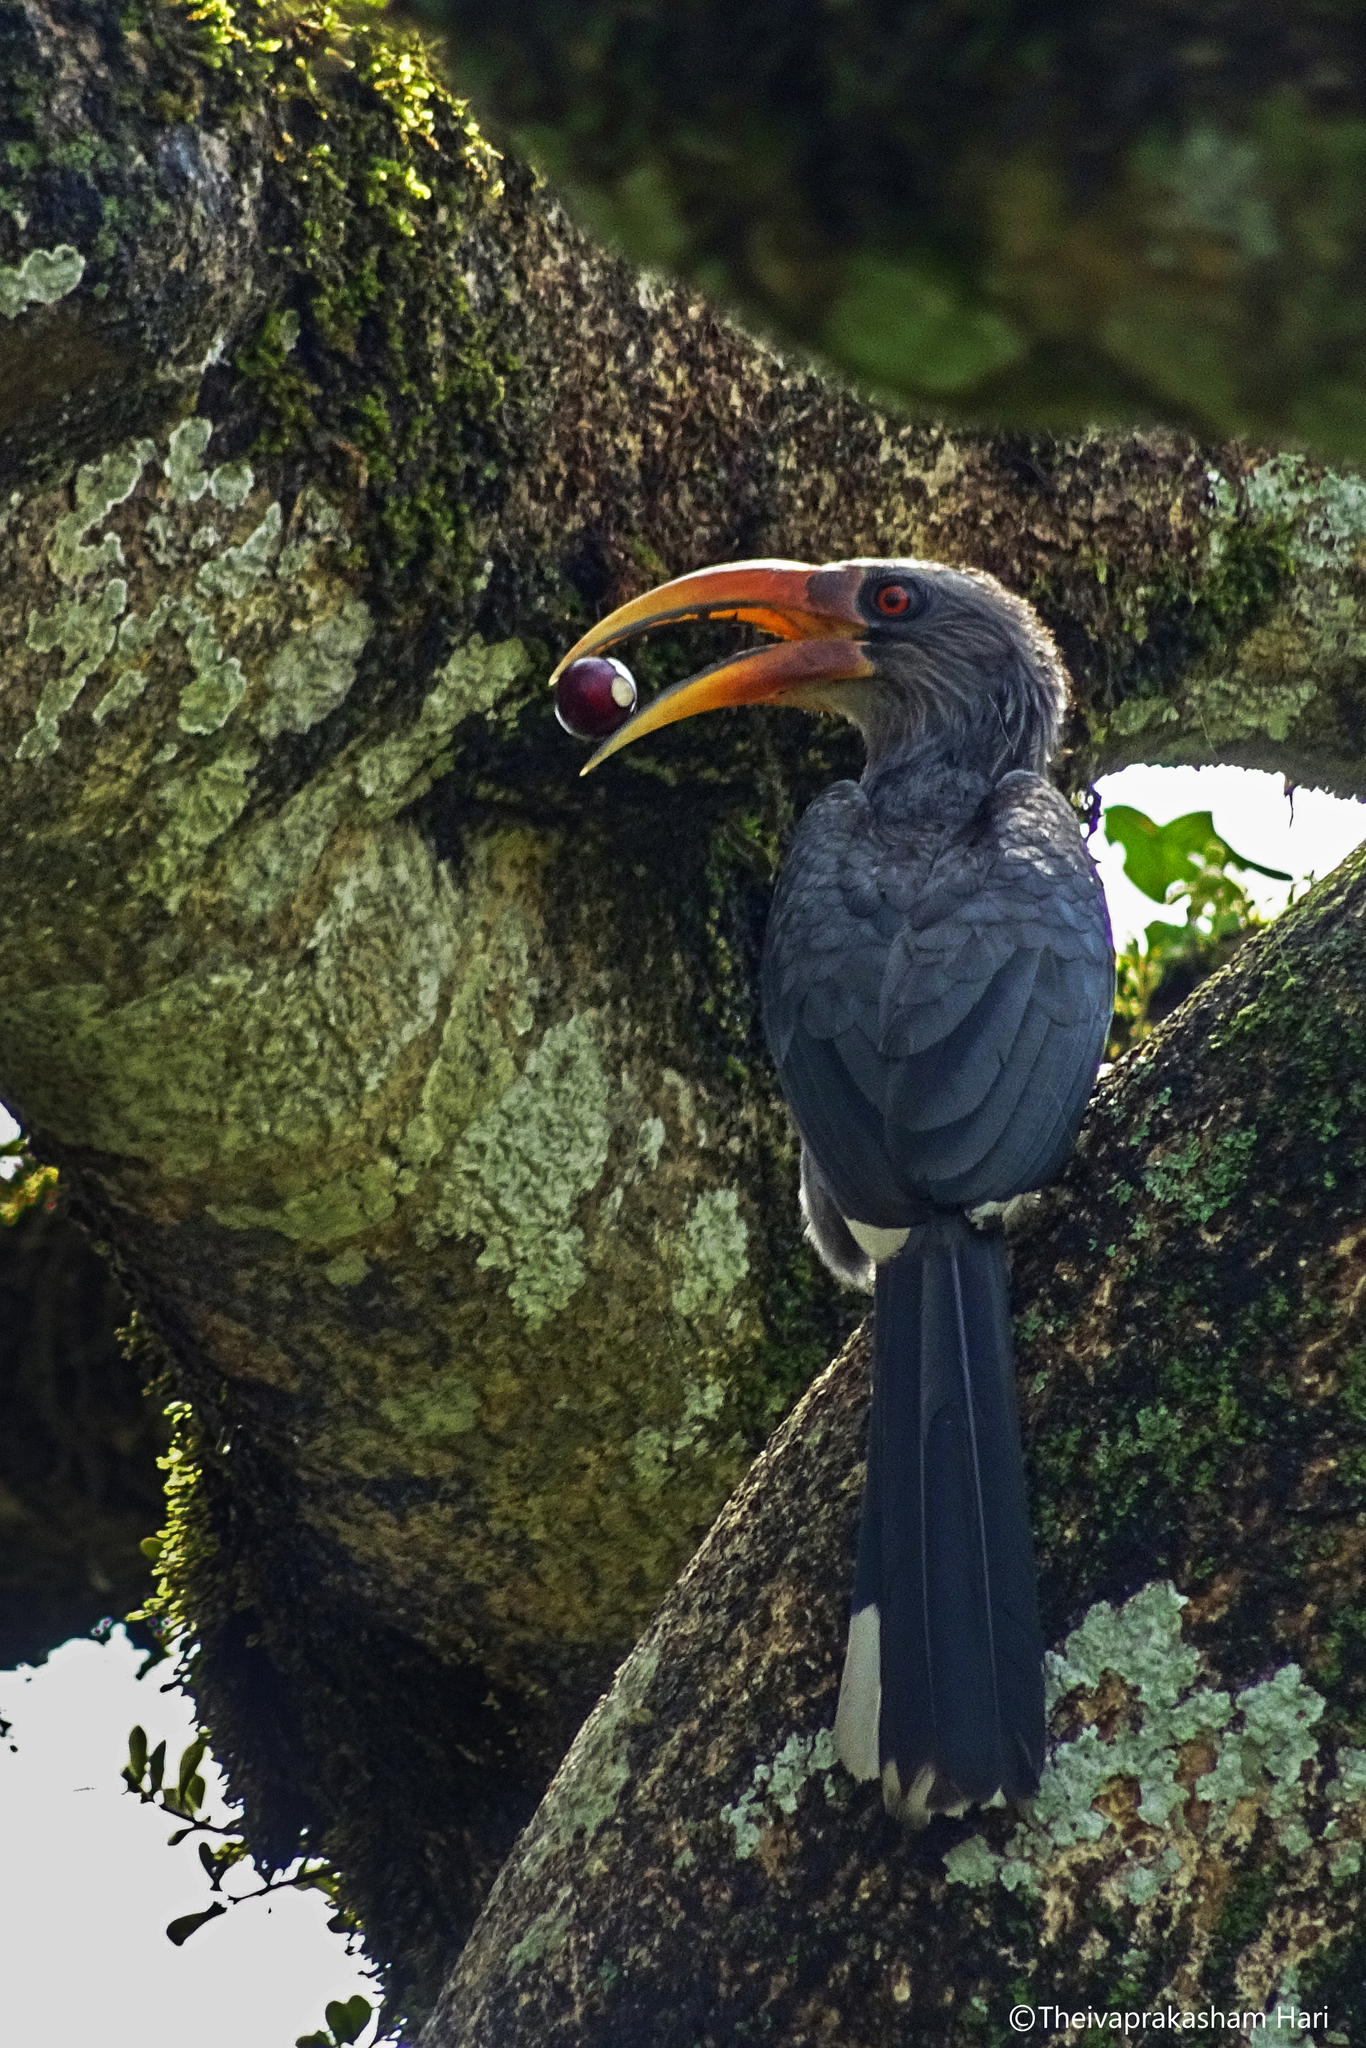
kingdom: Animalia
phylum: Chordata
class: Aves
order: Bucerotiformes
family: Bucerotidae
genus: Ocyceros
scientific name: Ocyceros griseus
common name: Malabar grey hornbill
